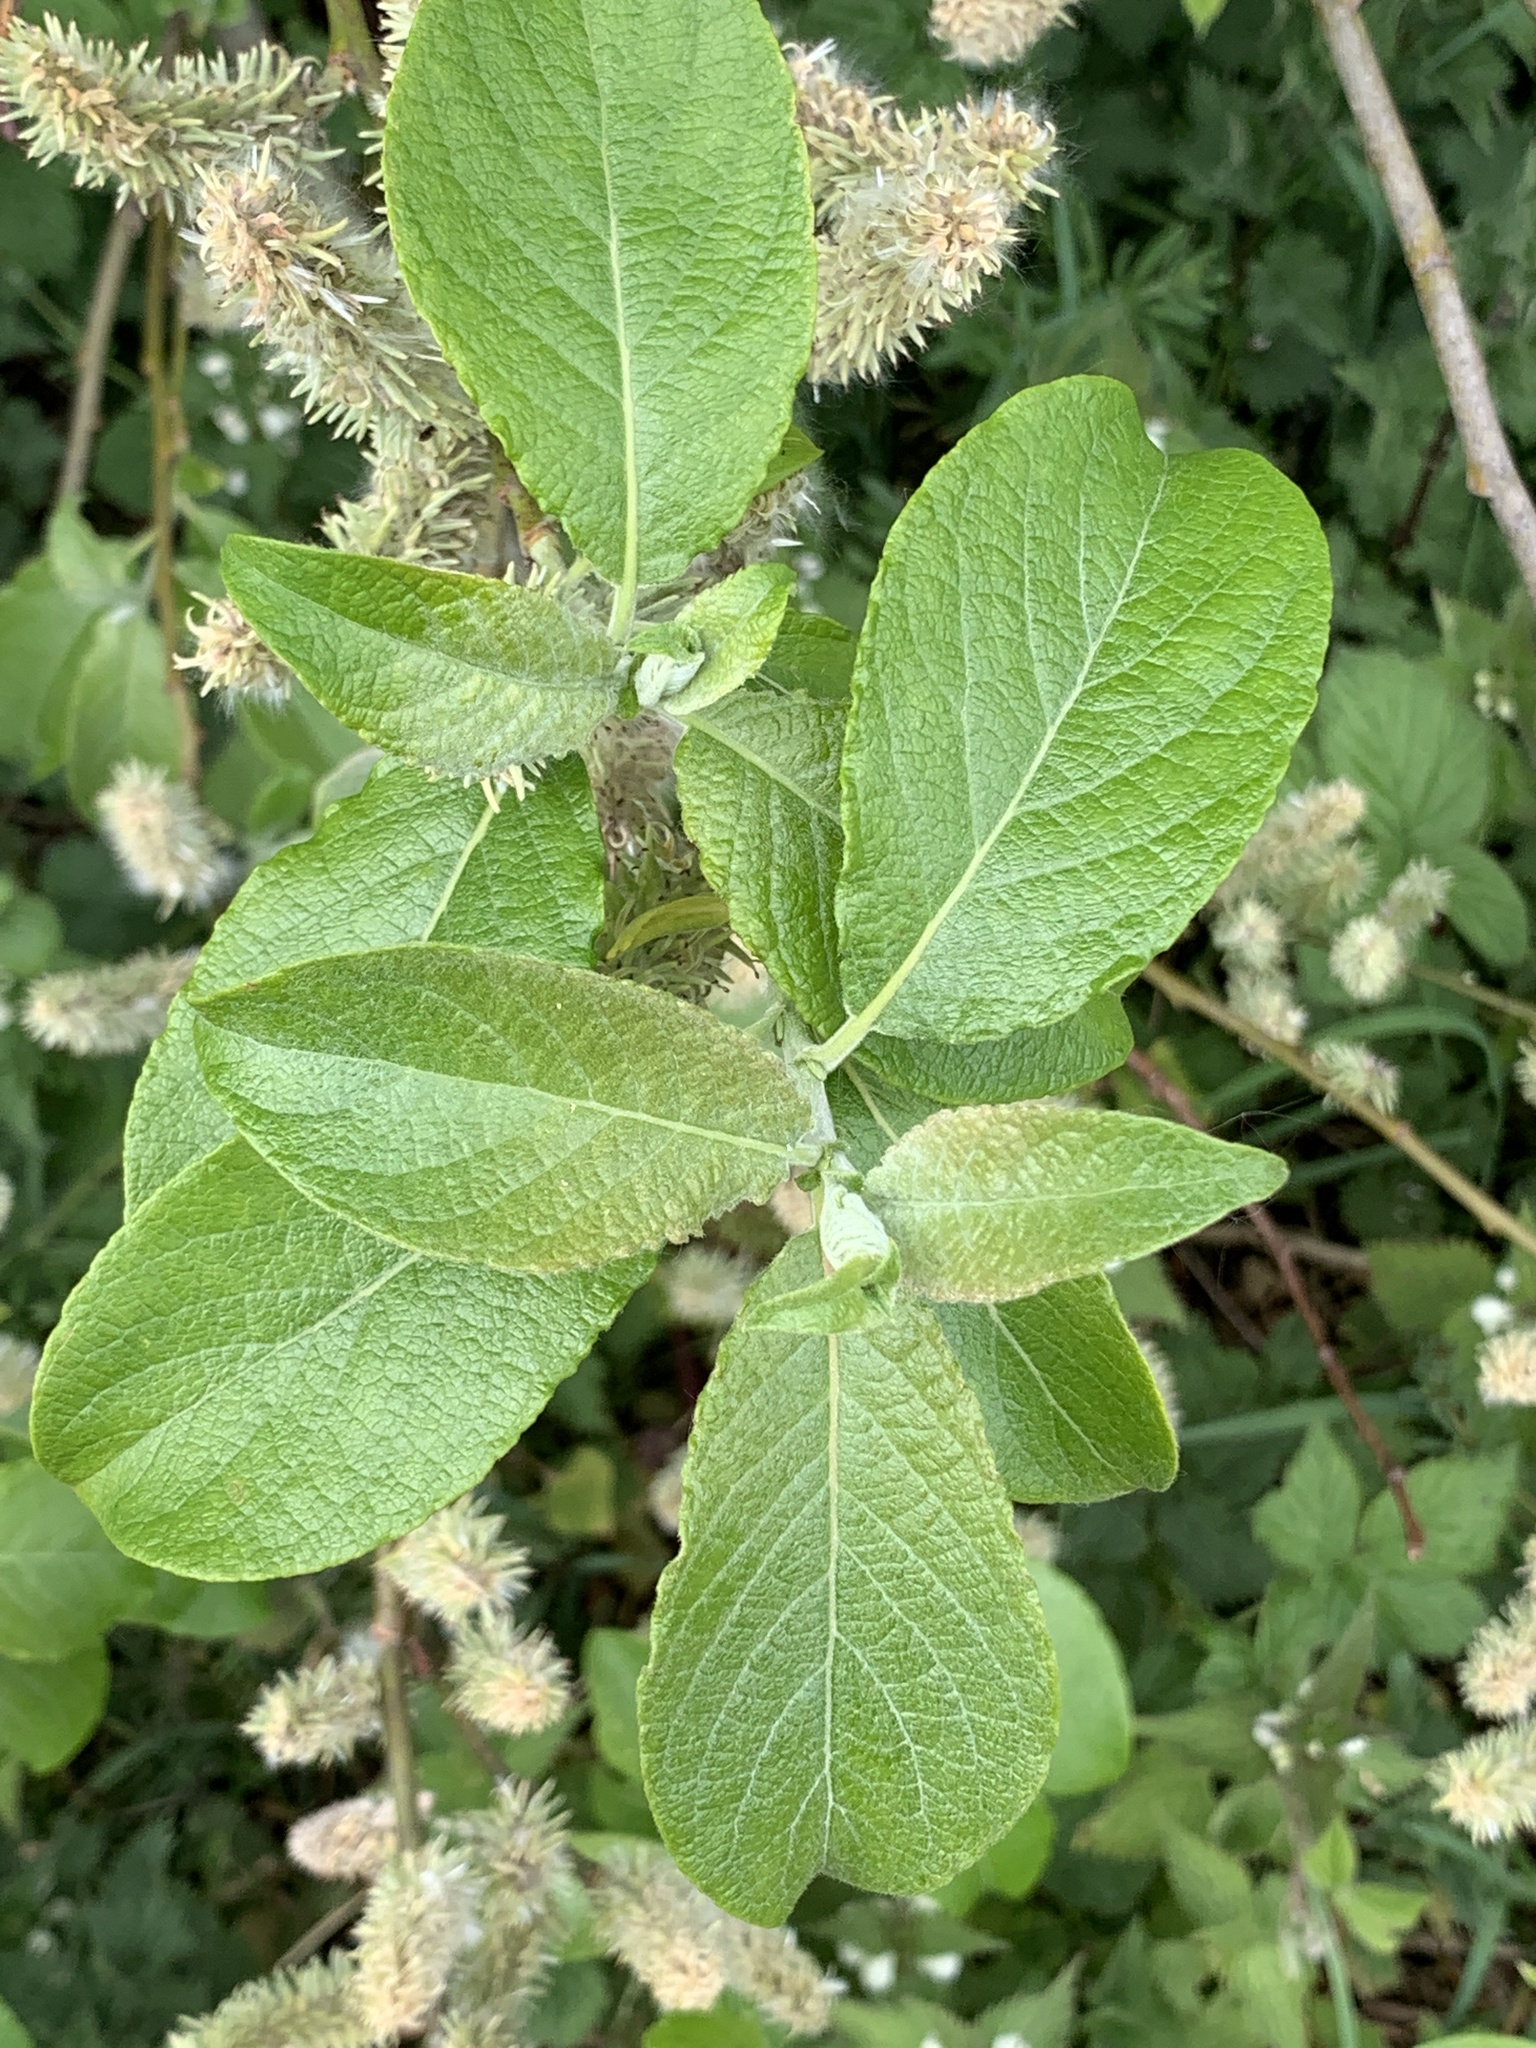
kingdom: Plantae
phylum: Tracheophyta
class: Magnoliopsida
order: Malpighiales
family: Salicaceae
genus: Salix
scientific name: Salix caprea
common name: Goat willow
